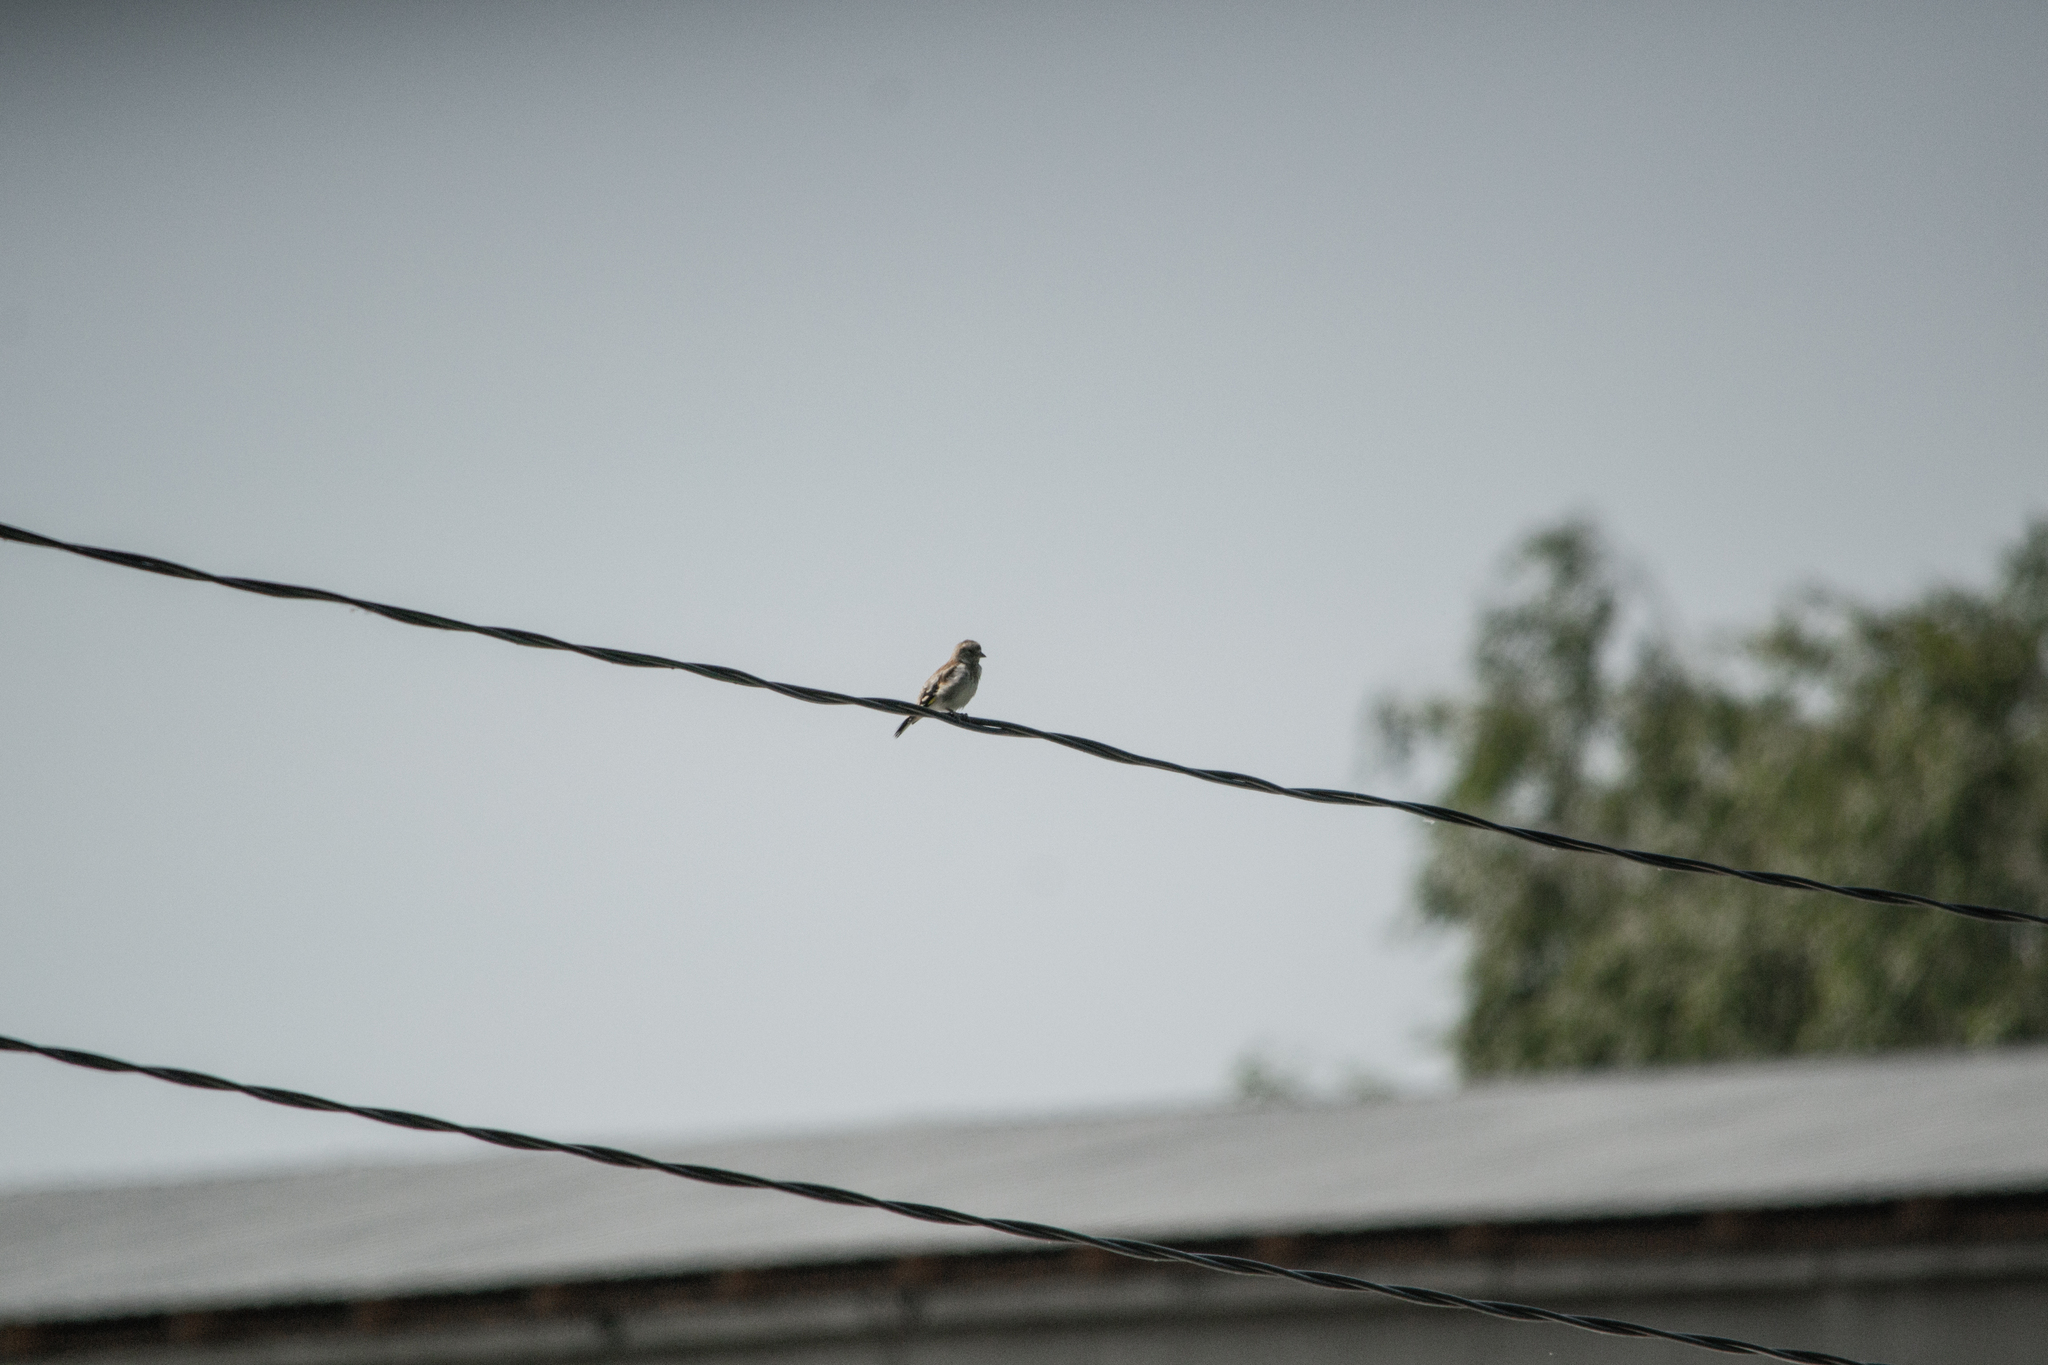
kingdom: Animalia
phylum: Chordata
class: Aves
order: Passeriformes
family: Fringillidae
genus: Carduelis
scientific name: Carduelis carduelis
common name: European goldfinch
